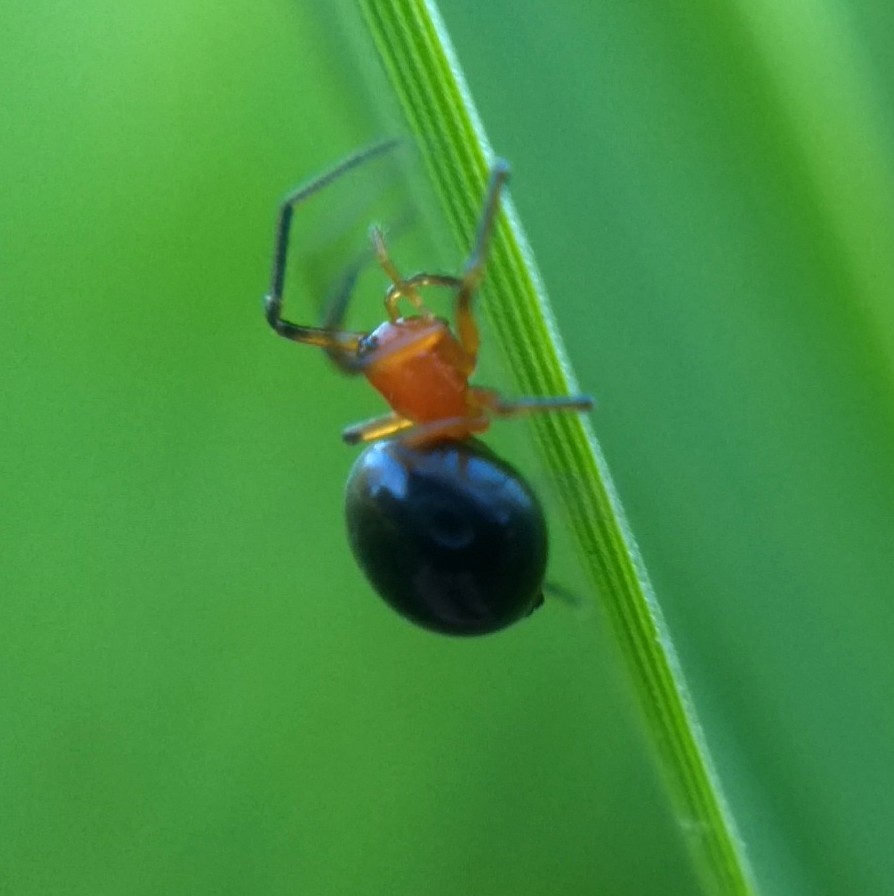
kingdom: Animalia
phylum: Arthropoda
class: Arachnida
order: Araneae
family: Linyphiidae
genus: Hypselistes
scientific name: Hypselistes florens
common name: Peatland sheetweb weaver
